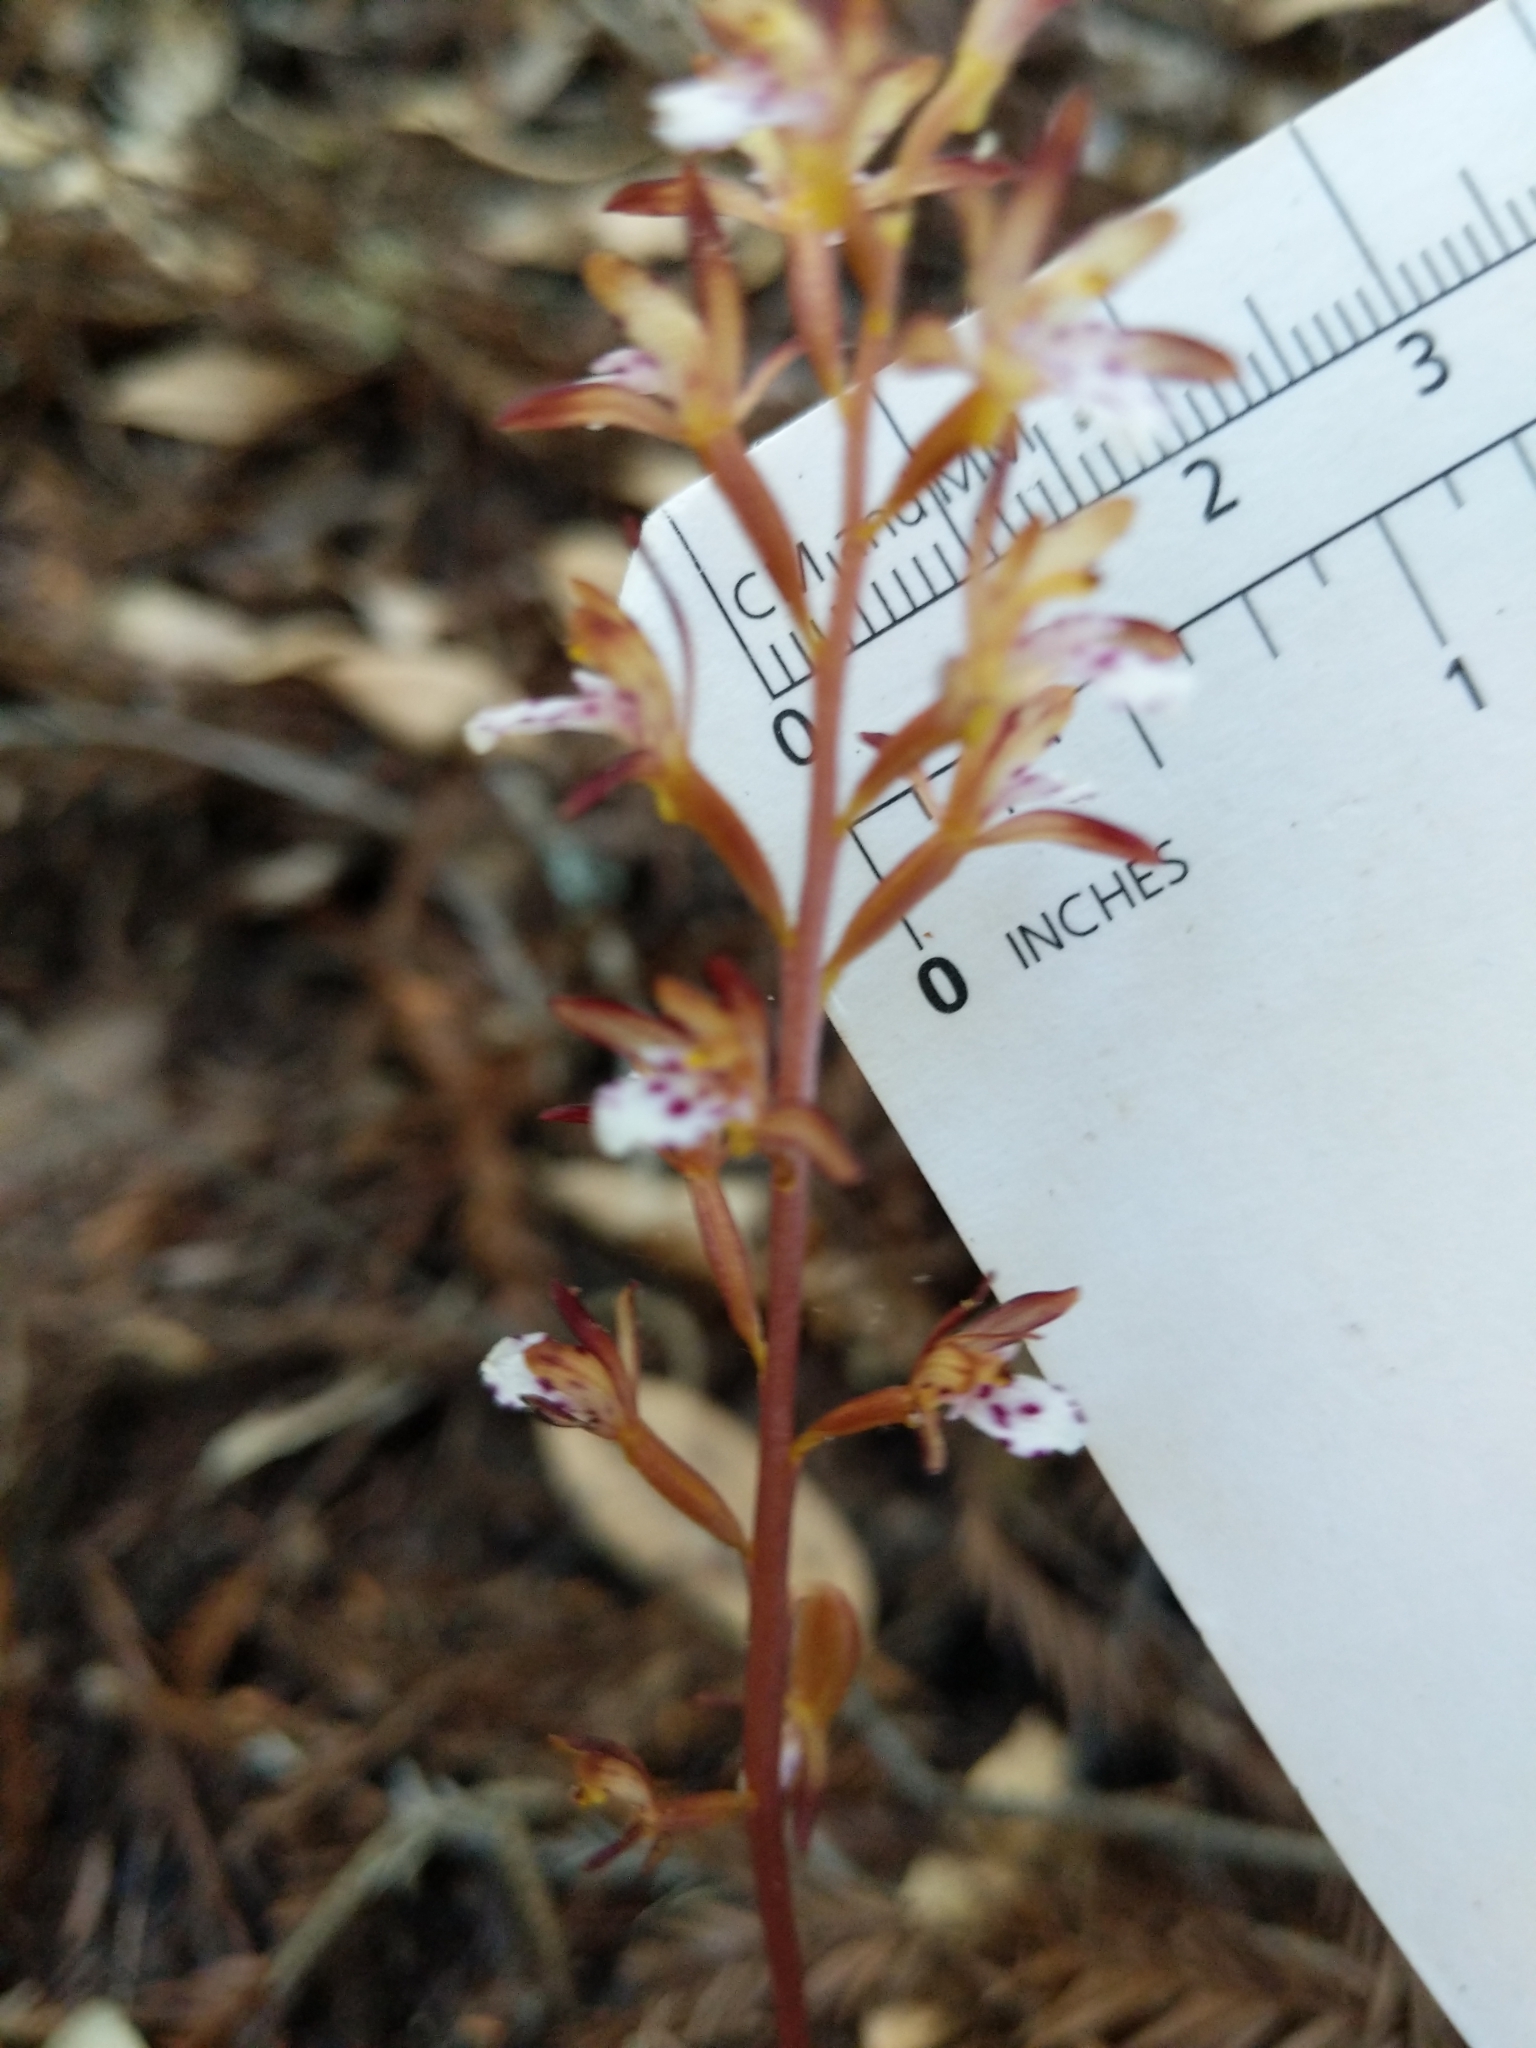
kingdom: Plantae
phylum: Tracheophyta
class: Liliopsida
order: Asparagales
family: Orchidaceae
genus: Corallorhiza
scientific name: Corallorhiza maculata
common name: Spotted coralroot
